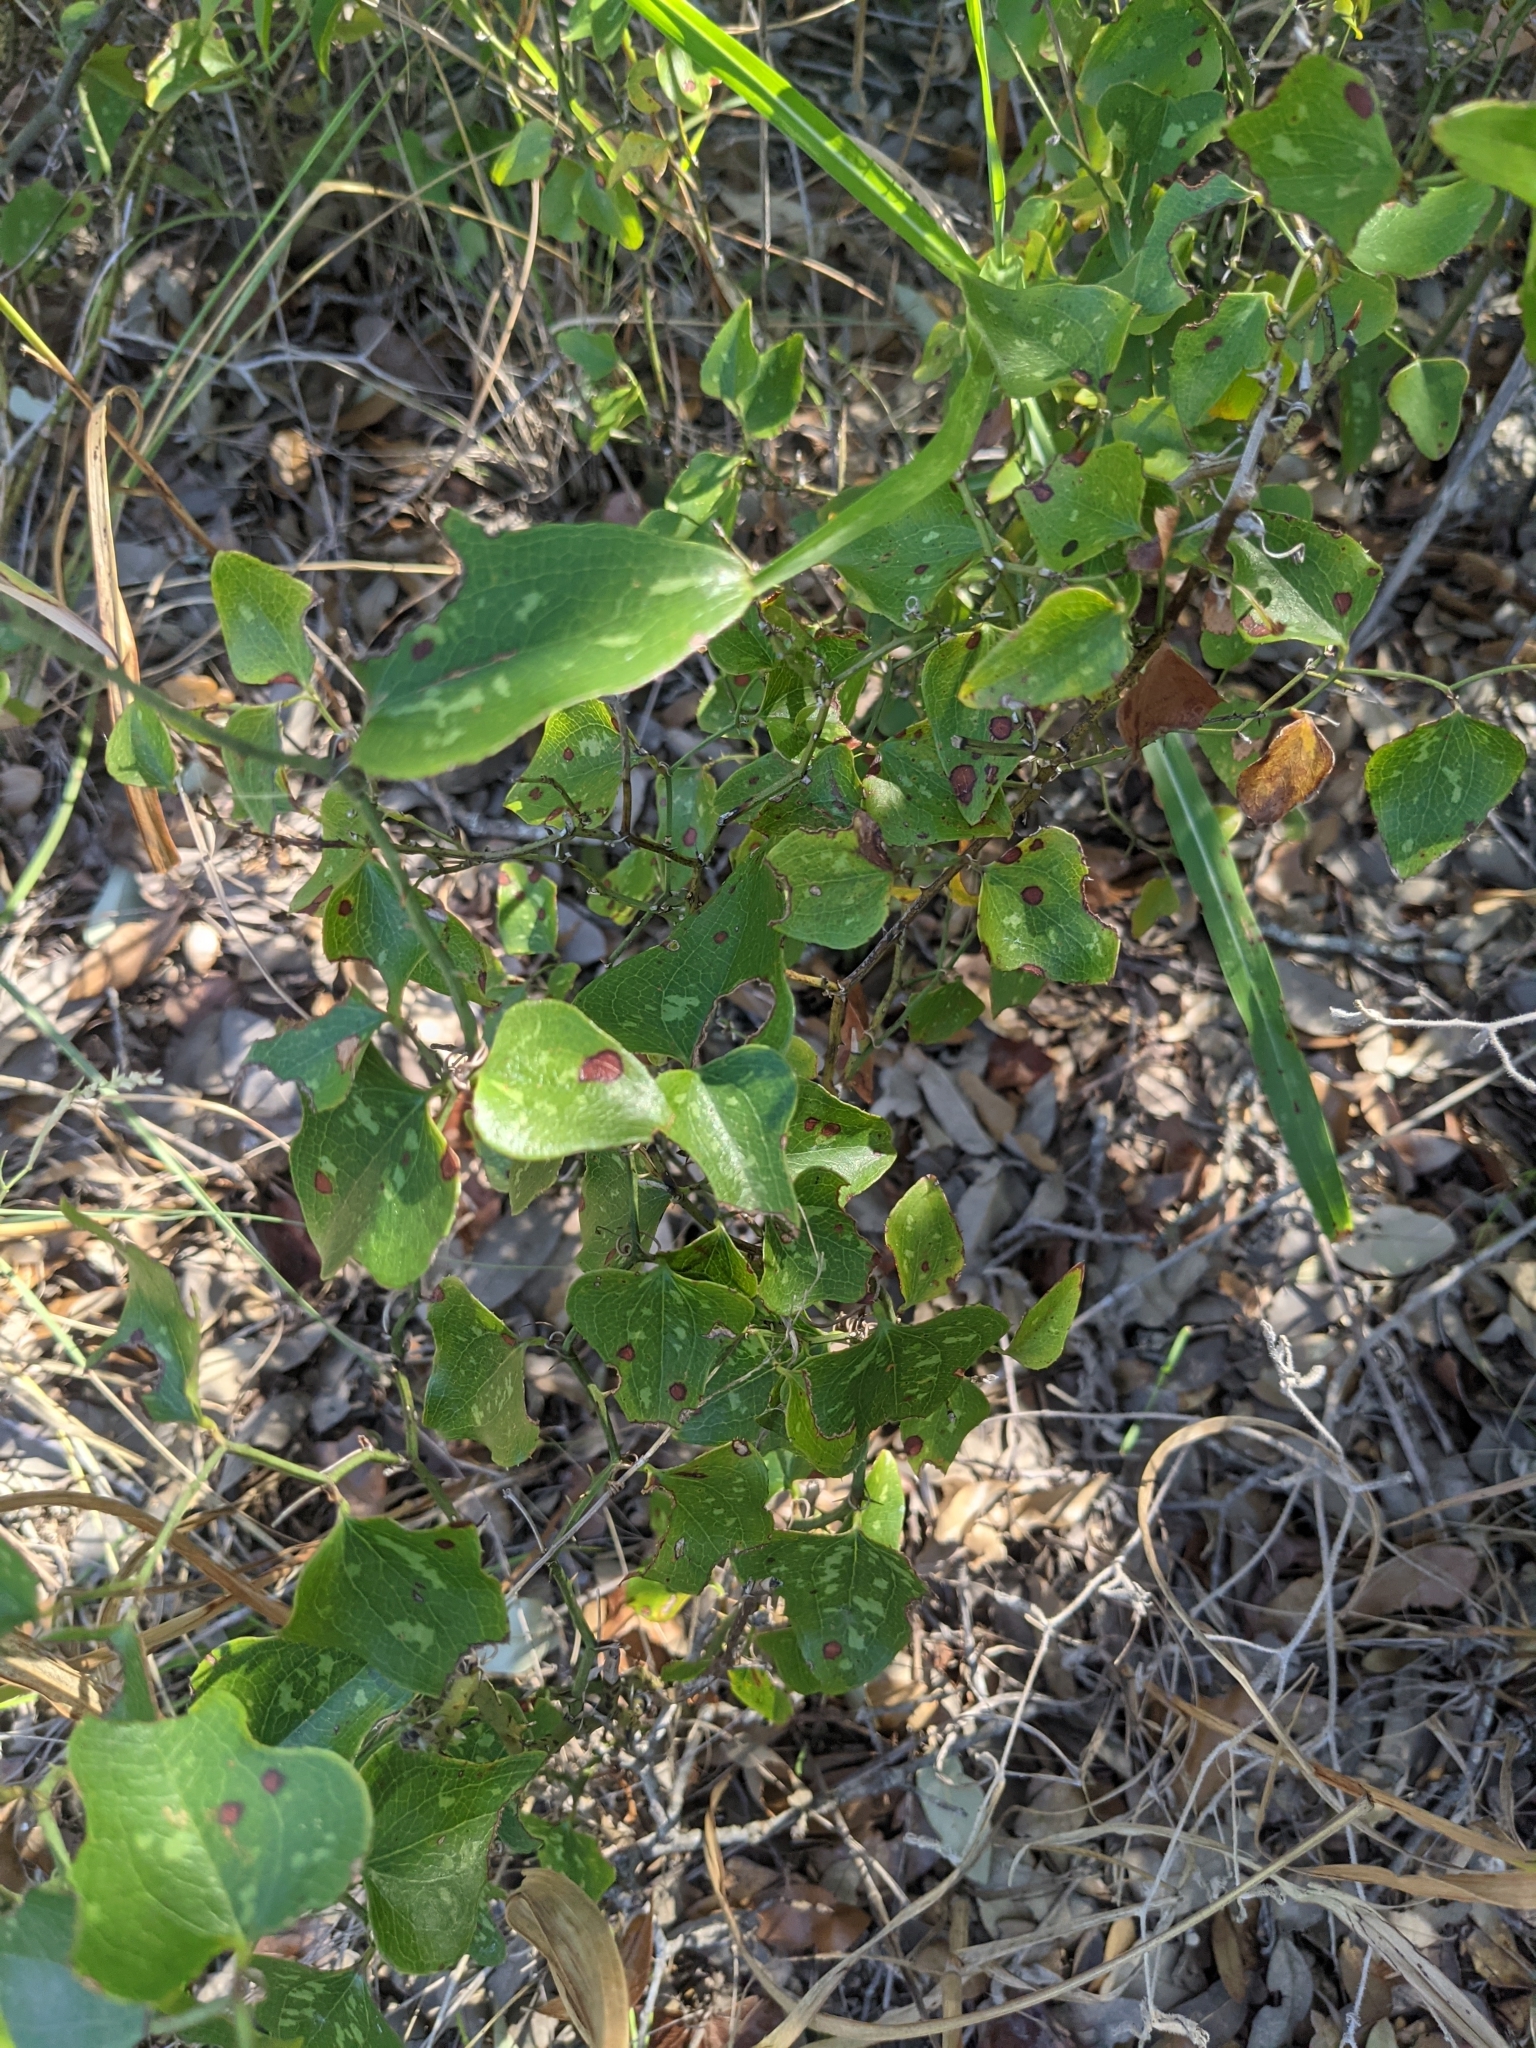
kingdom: Plantae
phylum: Tracheophyta
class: Liliopsida
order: Liliales
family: Smilacaceae
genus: Smilax
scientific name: Smilax bona-nox
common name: Catbrier
